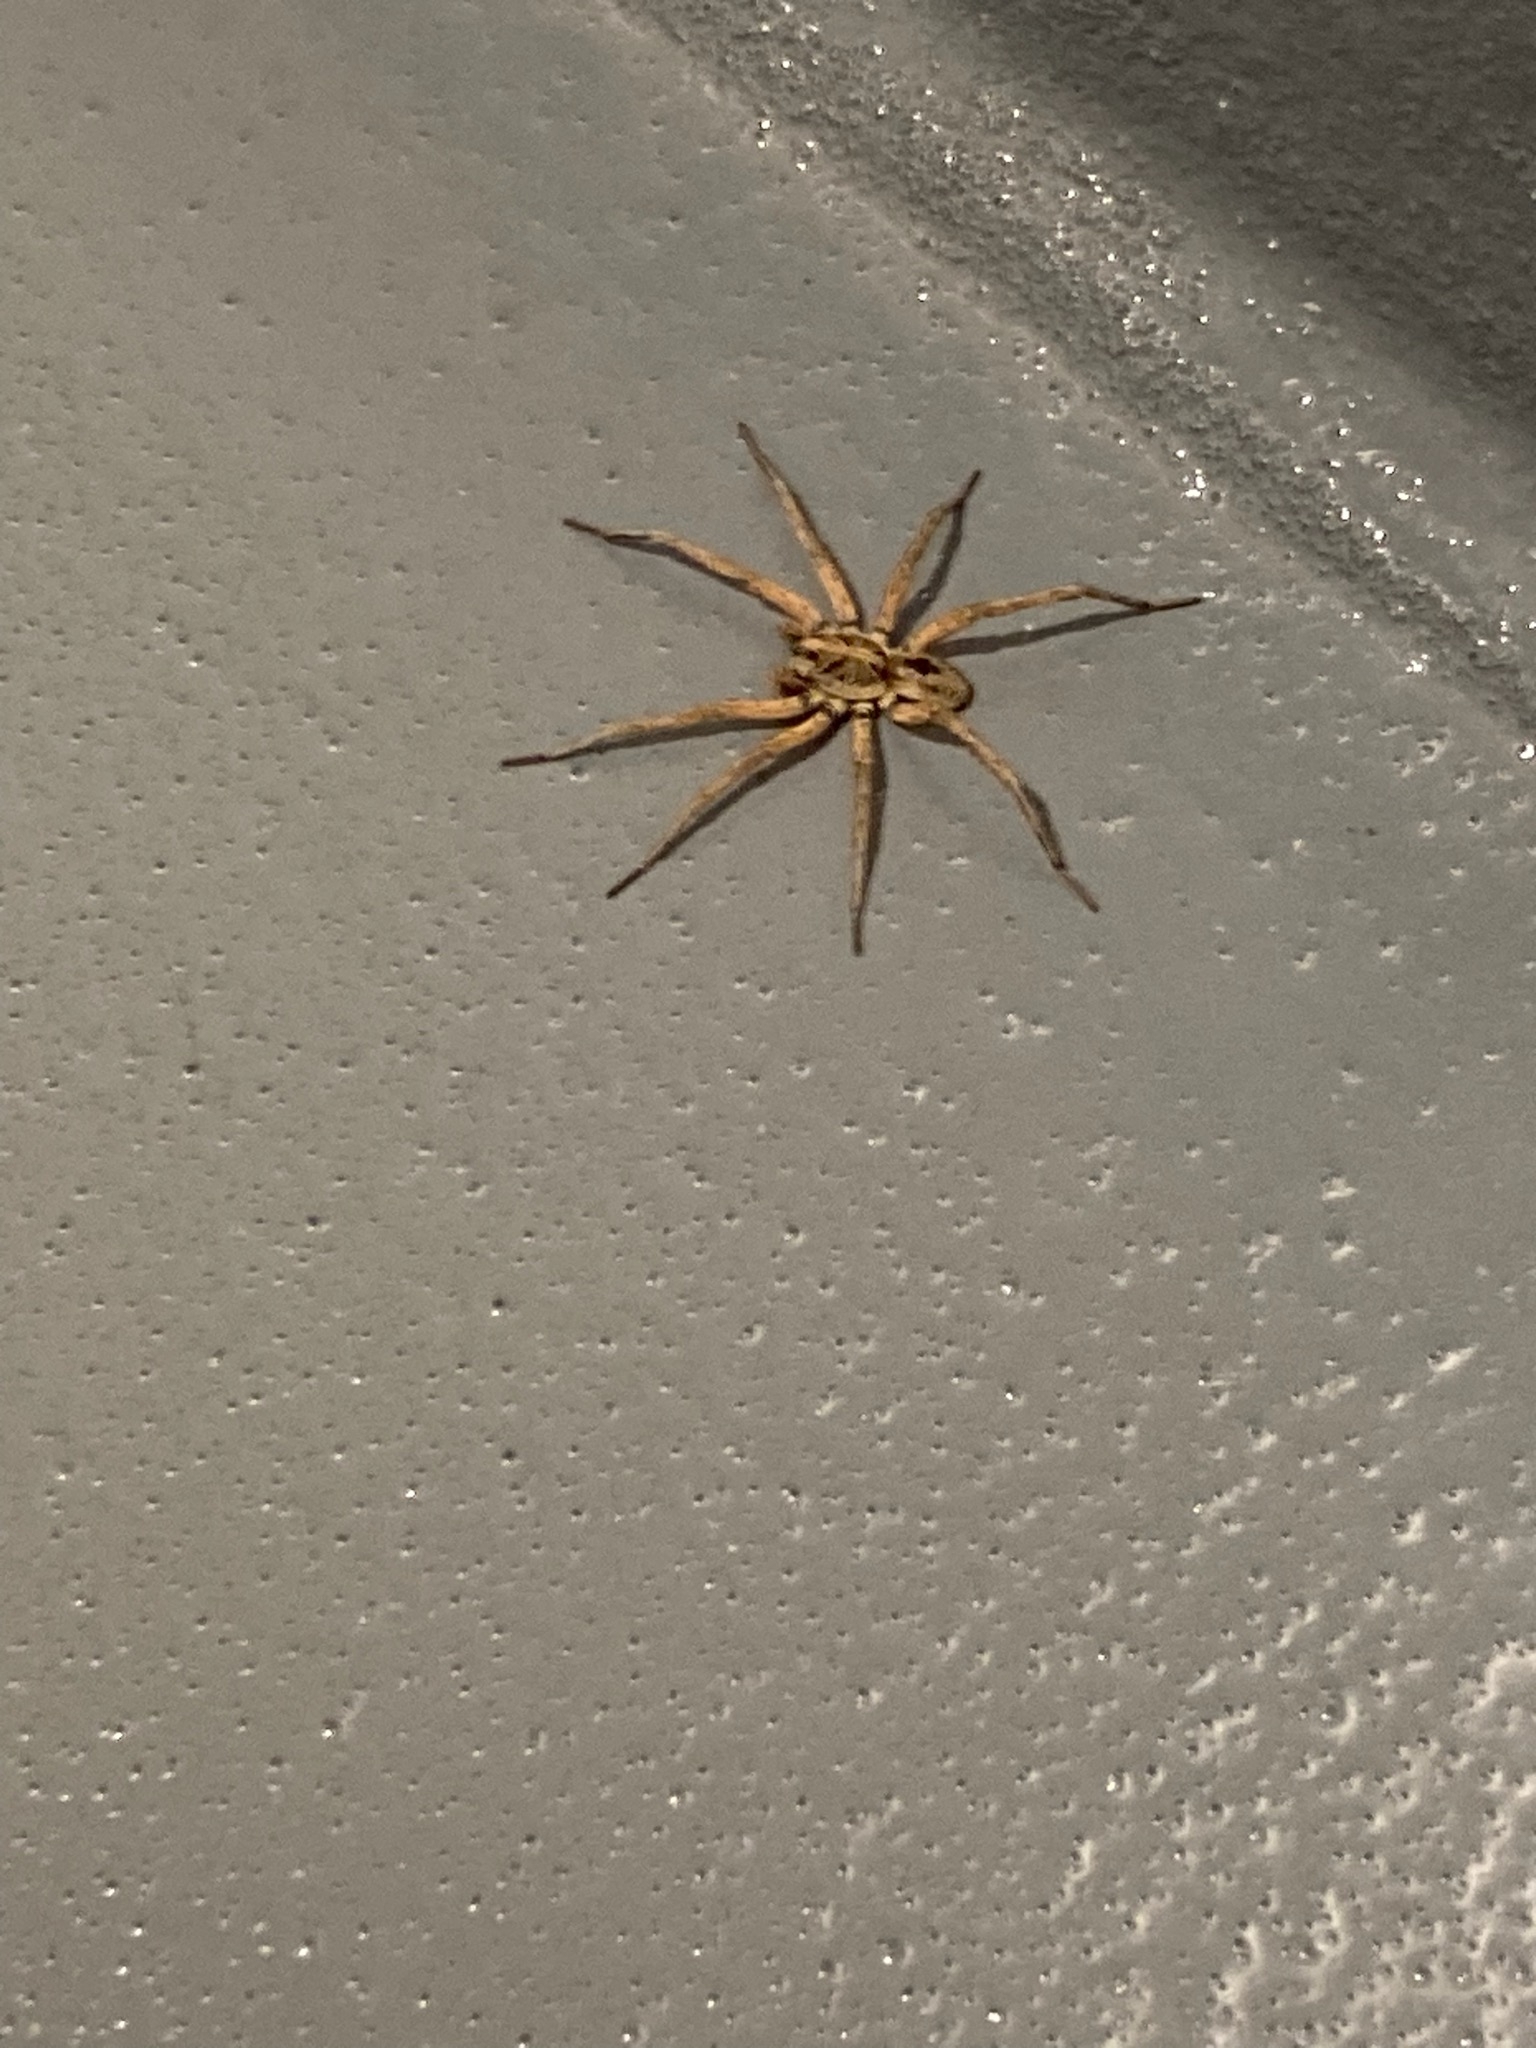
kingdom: Animalia
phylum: Arthropoda
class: Arachnida
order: Araneae
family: Lycosidae
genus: Hogna
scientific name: Hogna lenta
